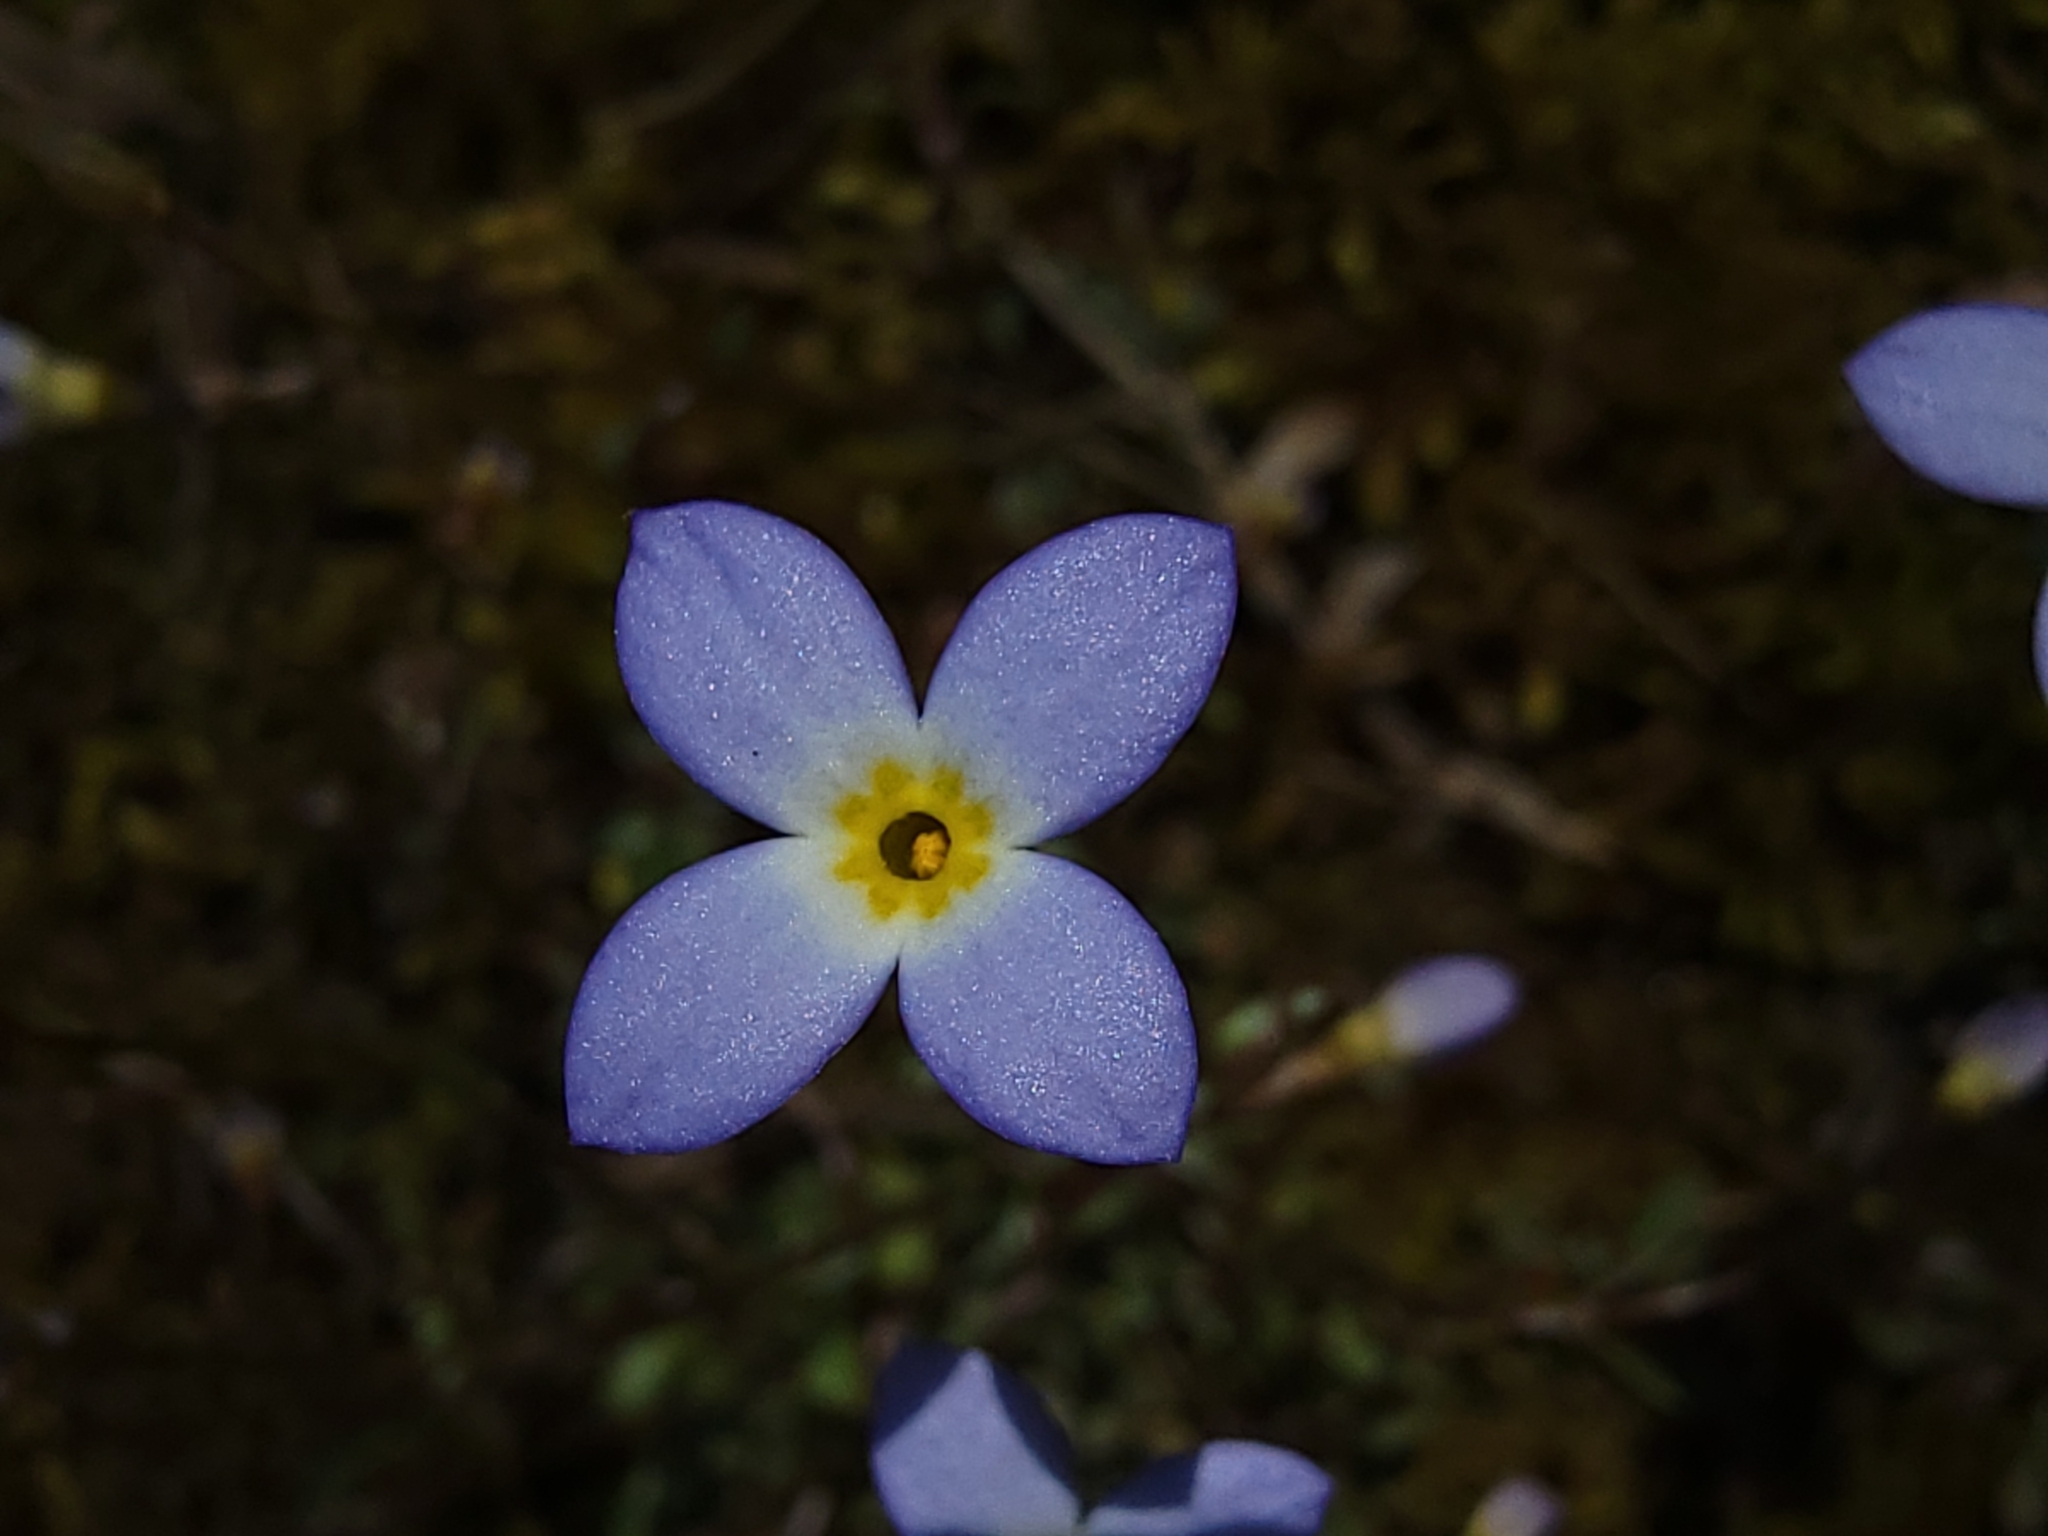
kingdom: Plantae
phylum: Tracheophyta
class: Magnoliopsida
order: Gentianales
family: Rubiaceae
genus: Houstonia
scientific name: Houstonia caerulea
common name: Bluets
